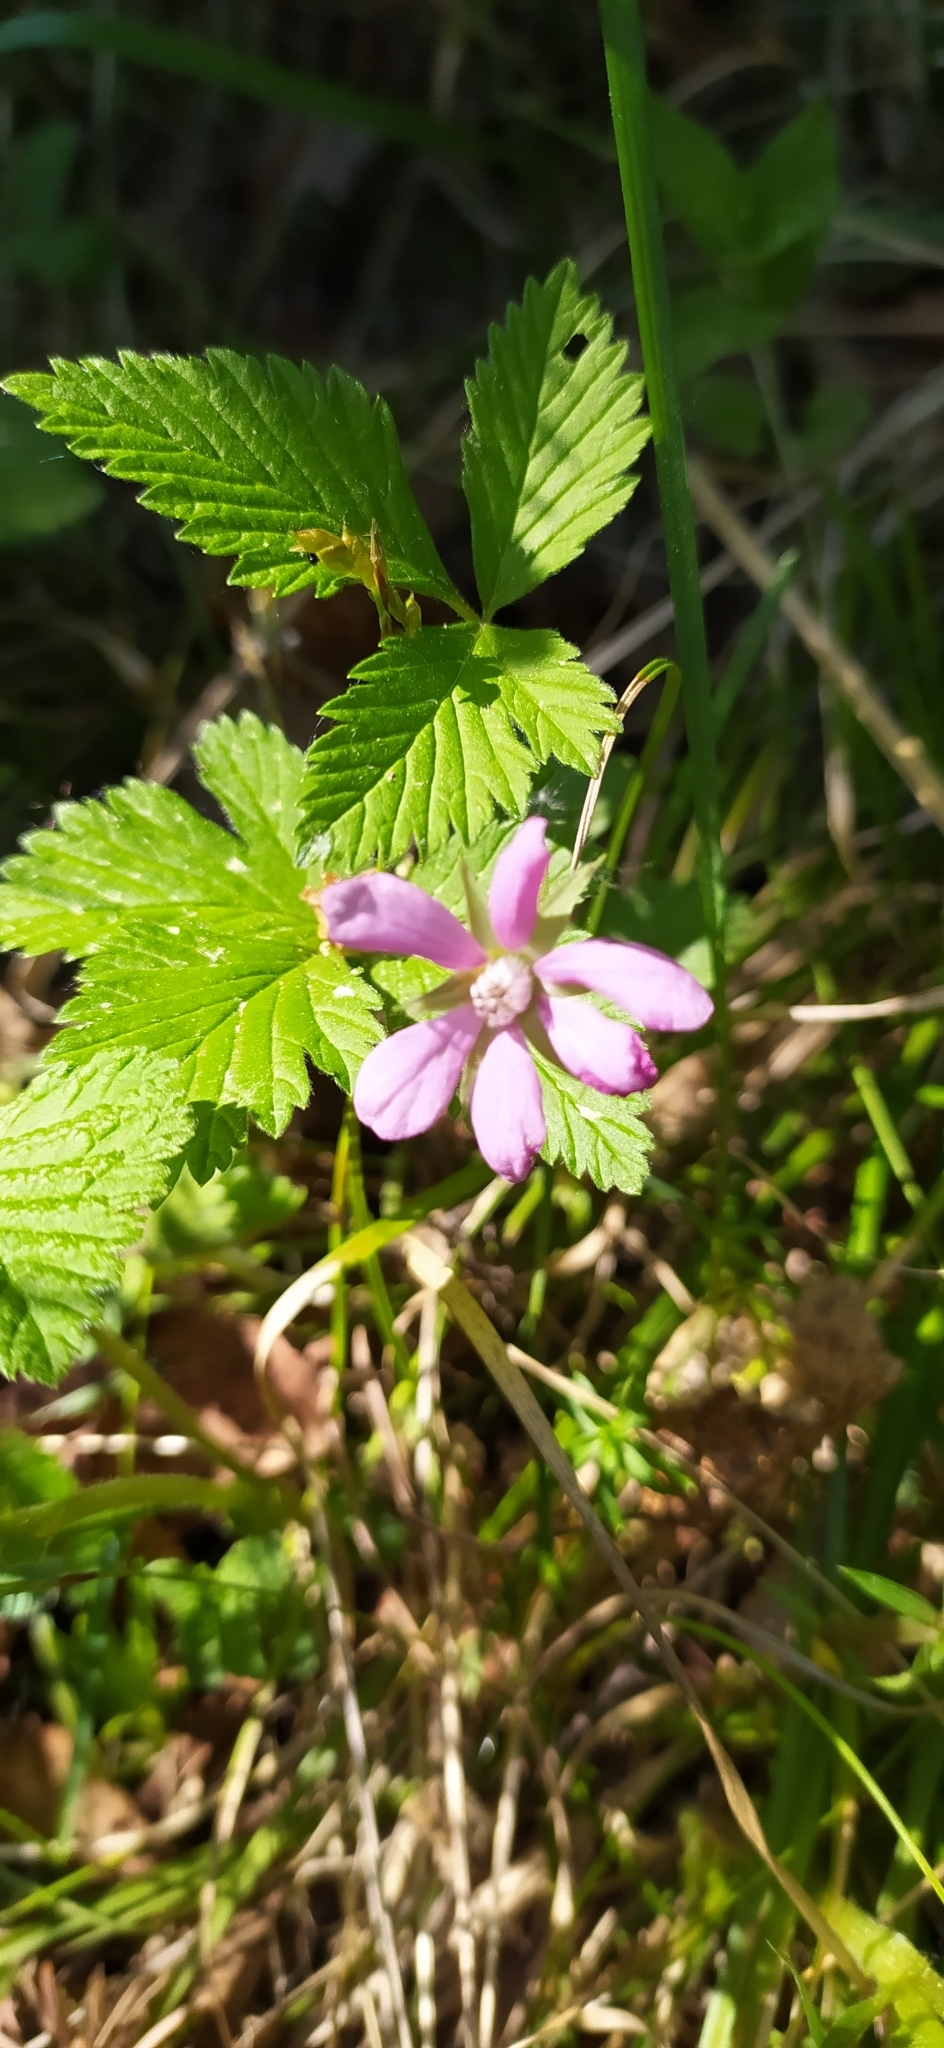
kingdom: Plantae
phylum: Tracheophyta
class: Magnoliopsida
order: Rosales
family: Rosaceae
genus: Rubus
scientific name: Rubus arcticus
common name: Arctic bramble
